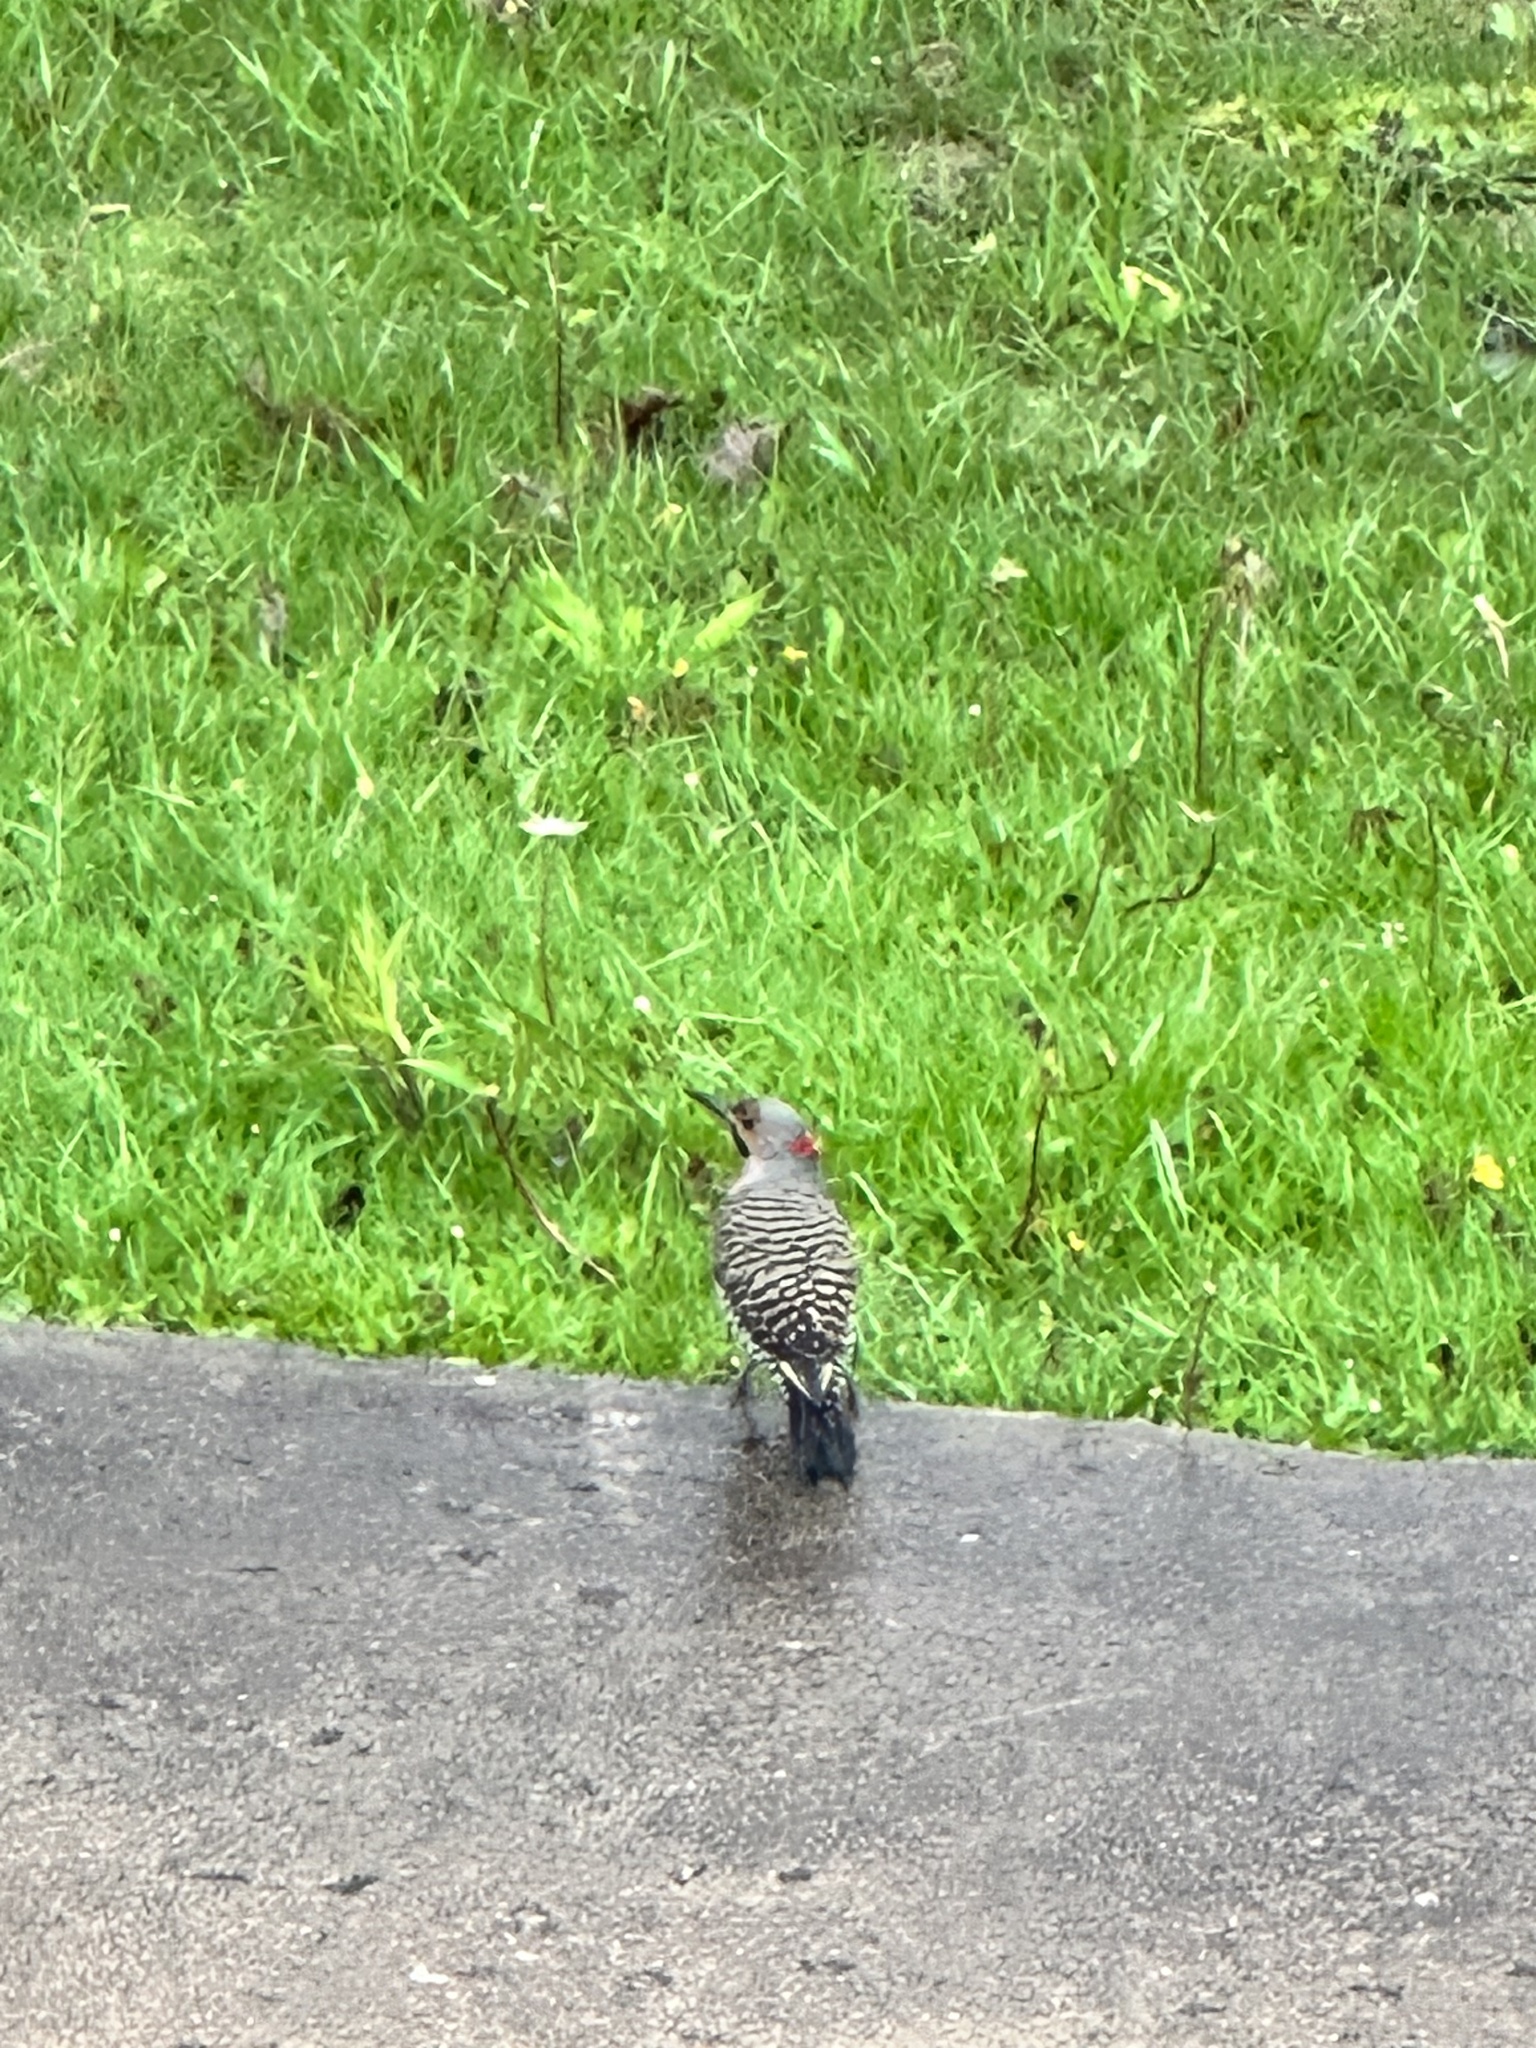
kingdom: Animalia
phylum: Chordata
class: Aves
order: Piciformes
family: Picidae
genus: Colaptes
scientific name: Colaptes auratus
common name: Northern flicker
